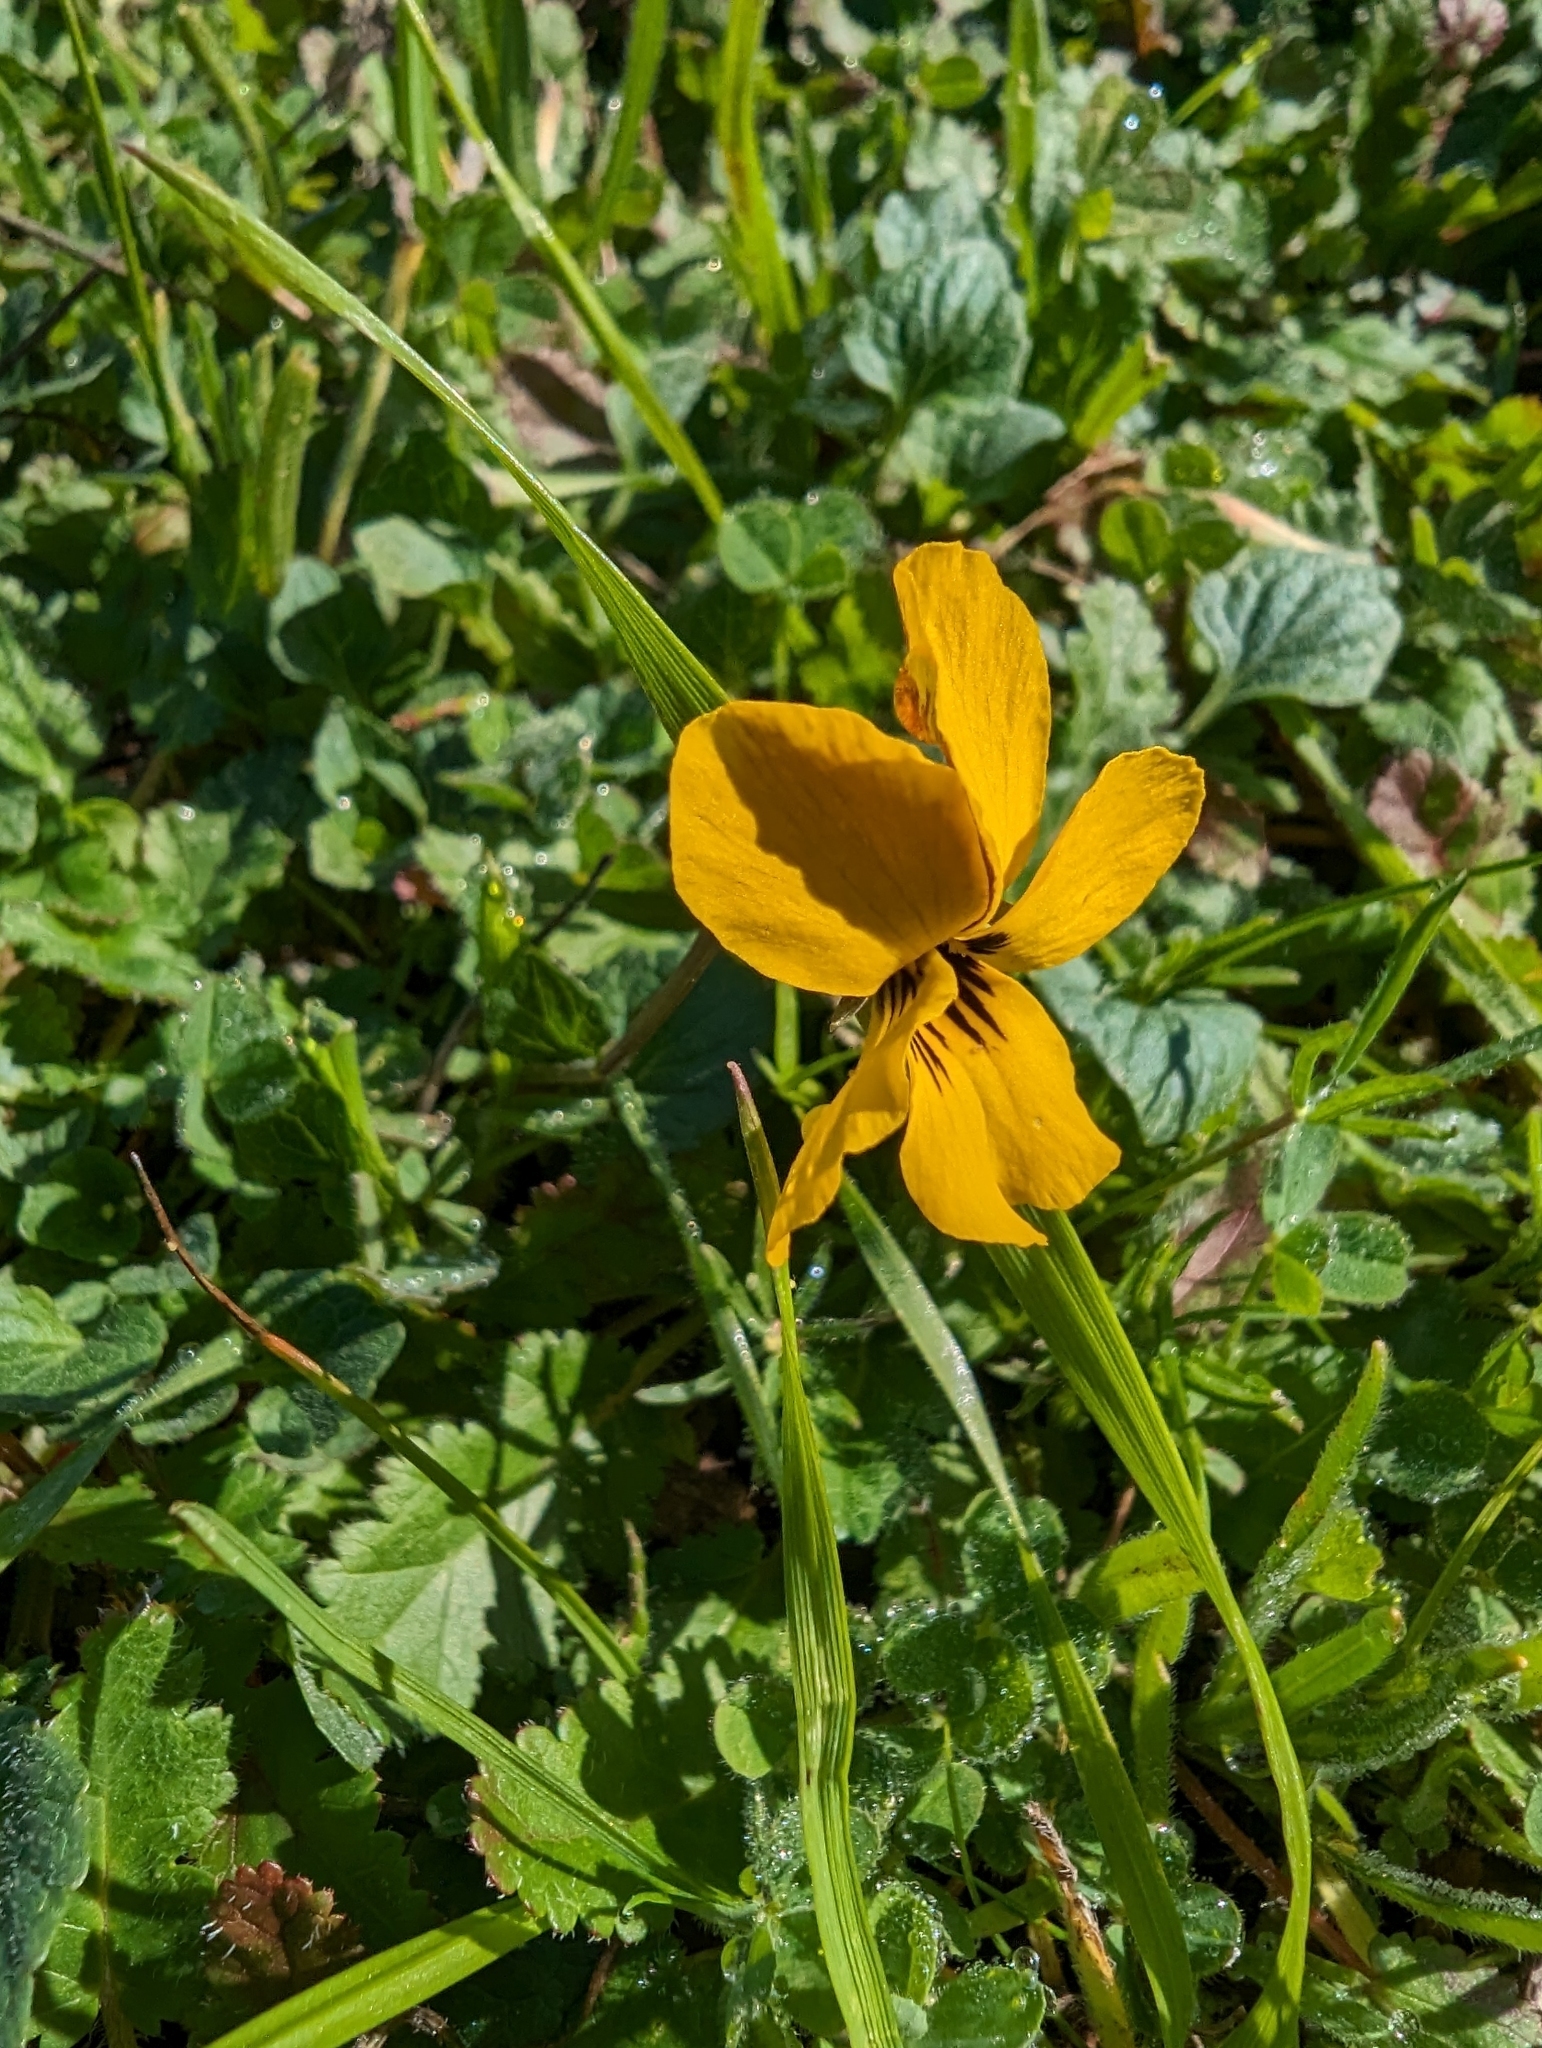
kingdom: Plantae
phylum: Tracheophyta
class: Magnoliopsida
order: Malpighiales
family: Violaceae
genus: Viola
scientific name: Viola pedunculata
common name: California golden violet
